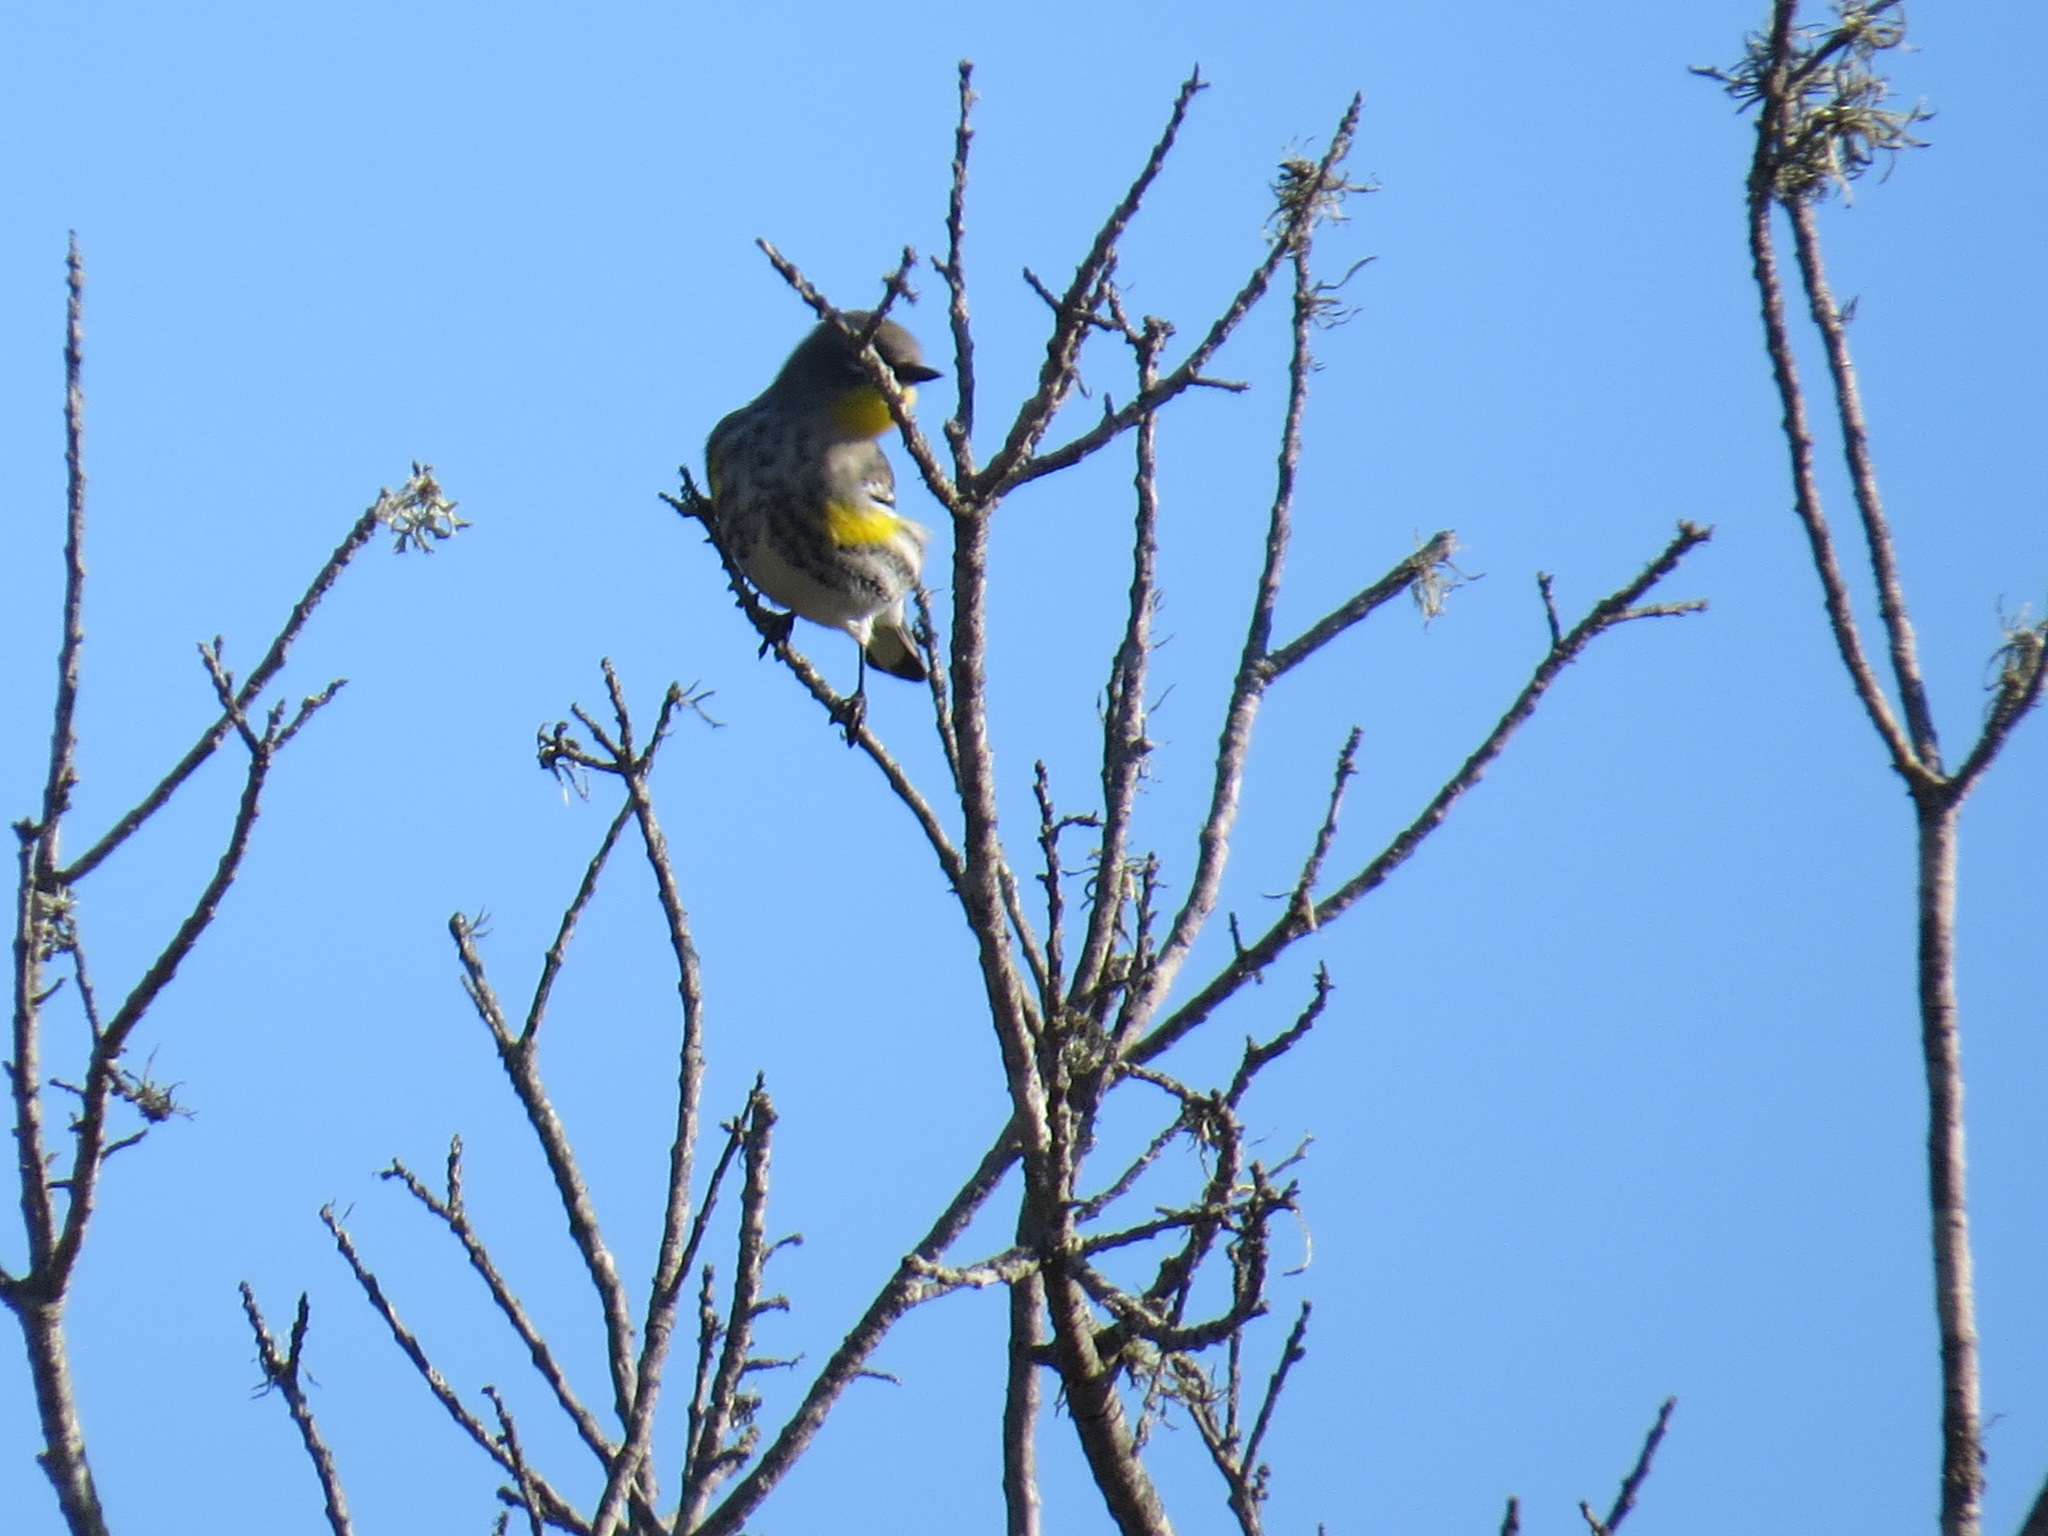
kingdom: Animalia
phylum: Chordata
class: Aves
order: Passeriformes
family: Parulidae
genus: Setophaga
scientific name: Setophaga coronata
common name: Myrtle warbler
